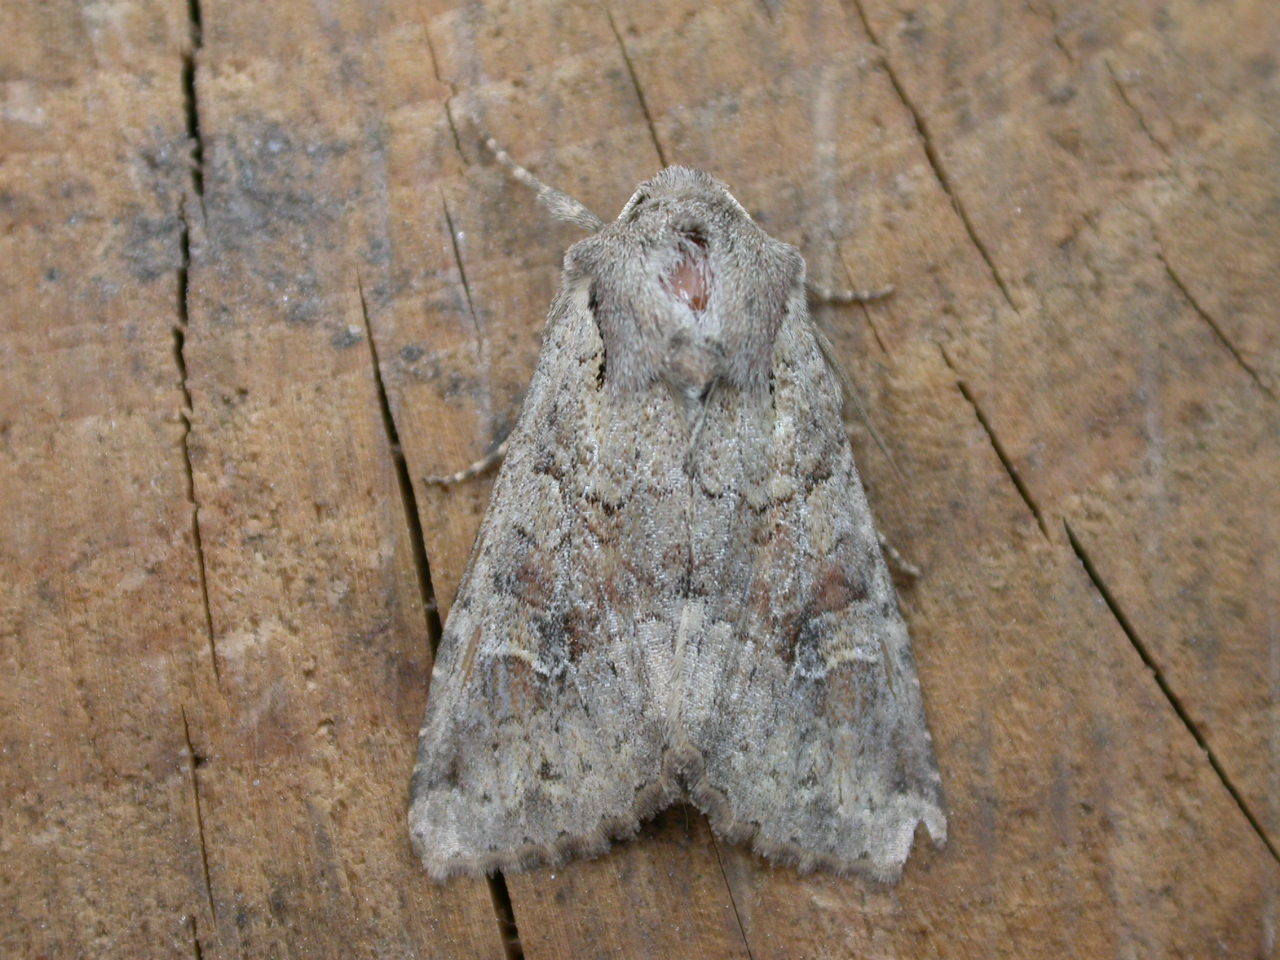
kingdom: Animalia
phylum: Arthropoda
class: Insecta
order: Lepidoptera
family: Noctuidae
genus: Apamea
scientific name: Apamea sordens
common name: Rustic shoulder-knot
